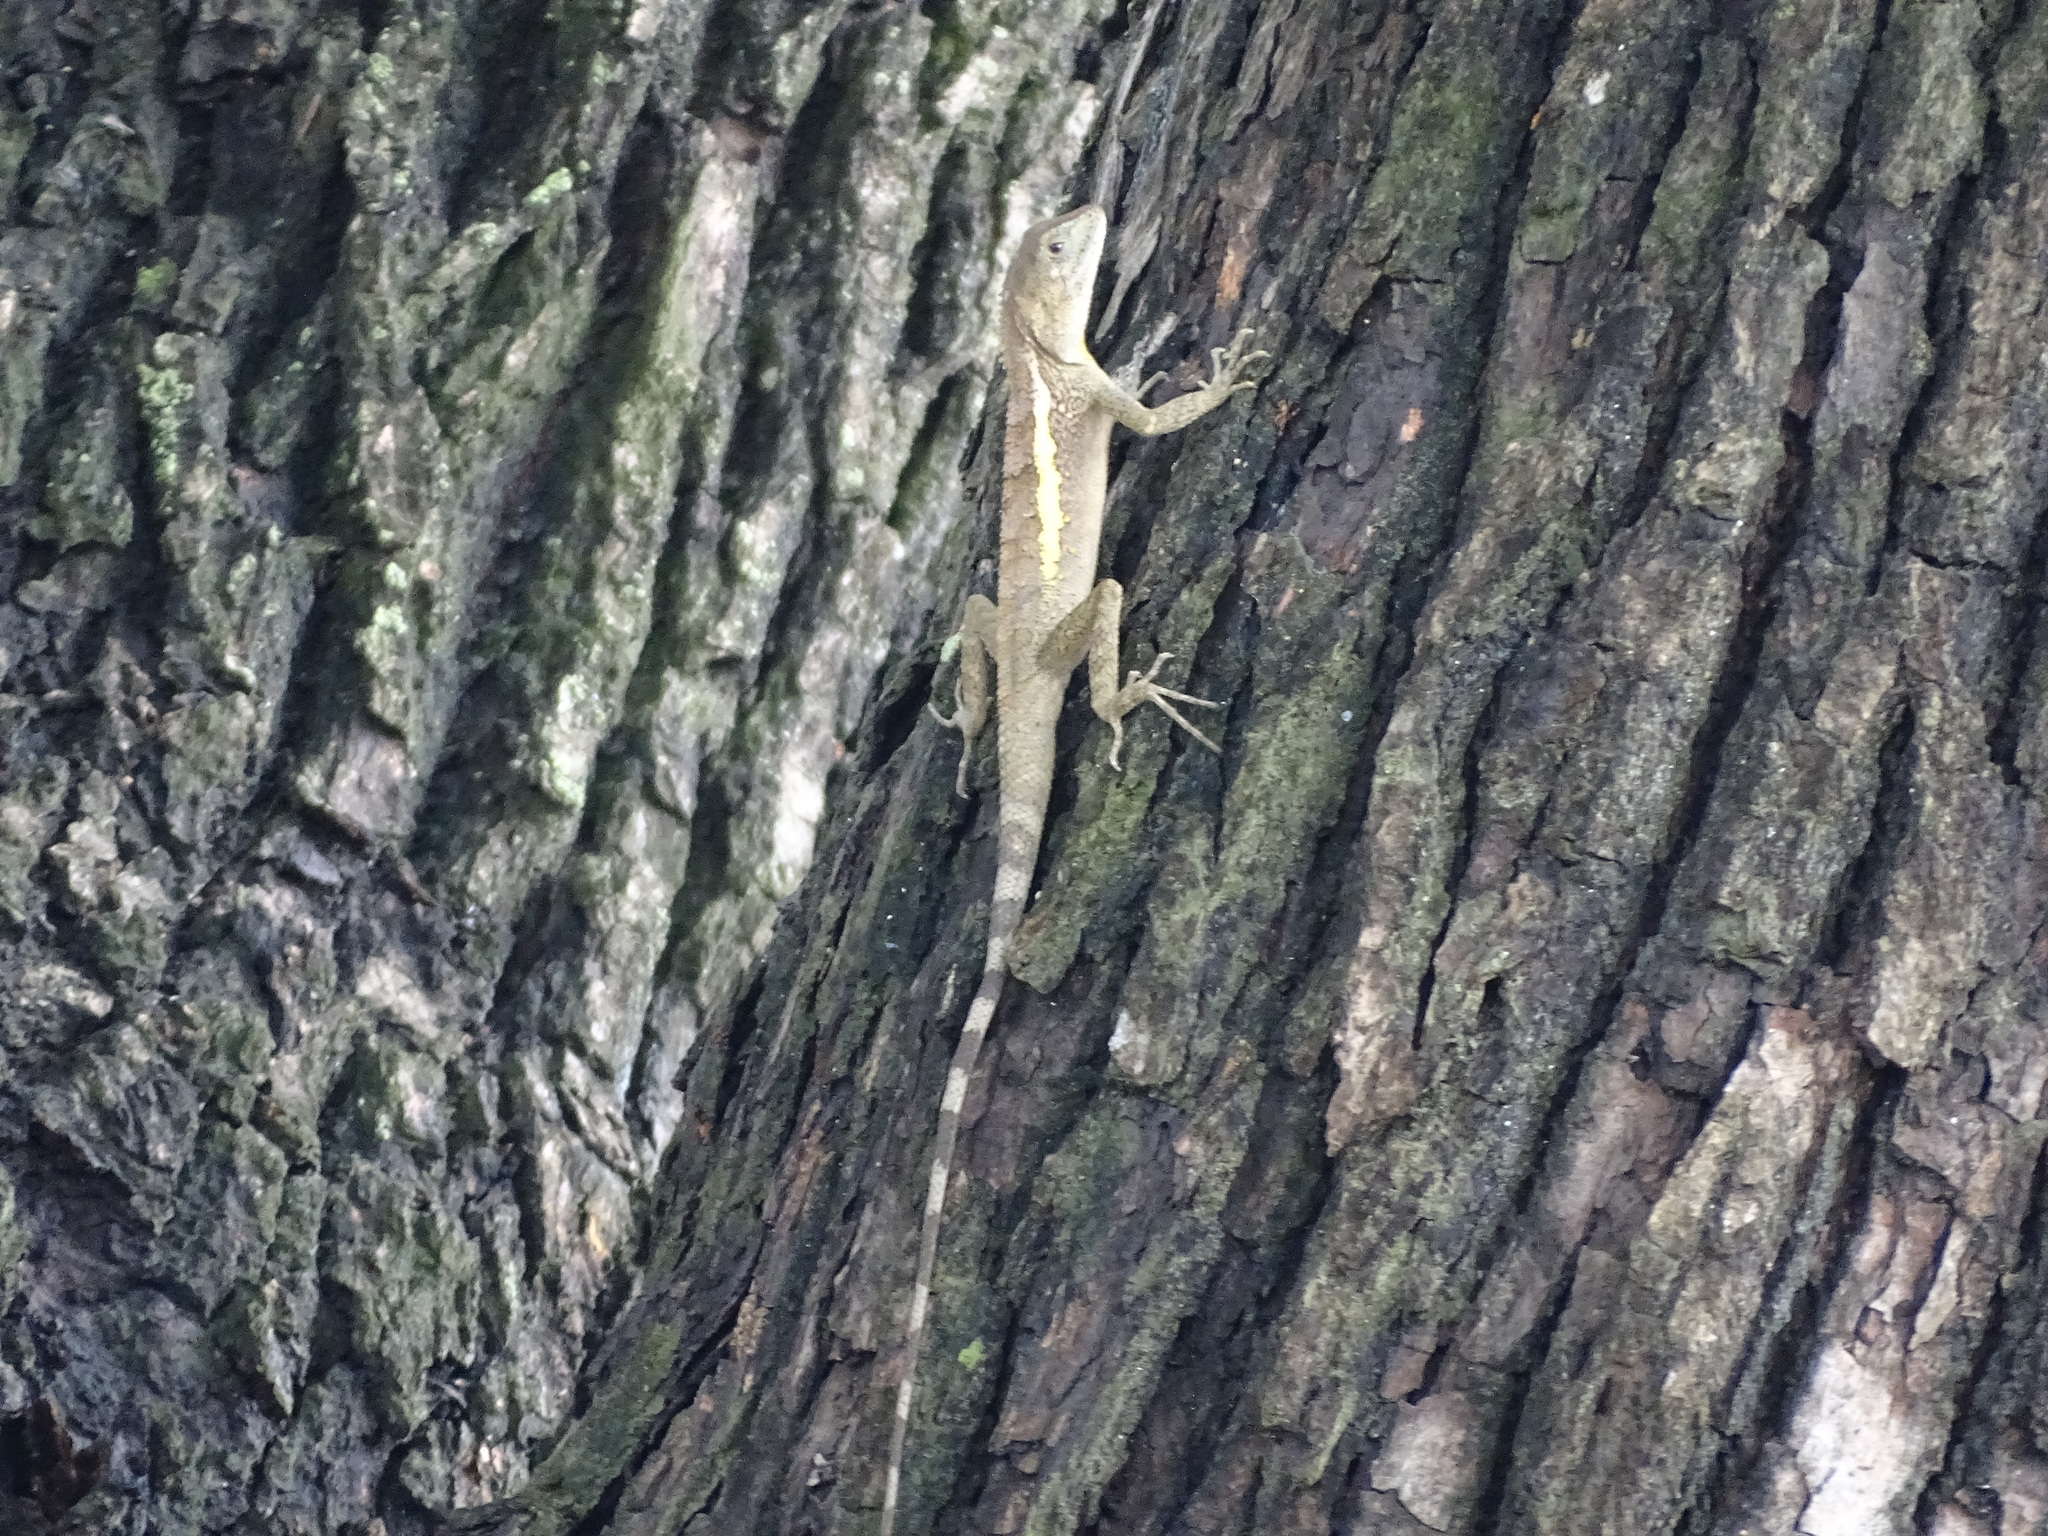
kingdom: Animalia
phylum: Chordata
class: Squamata
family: Agamidae
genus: Diploderma
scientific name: Diploderma swinhonis
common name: Taiwan japalure
